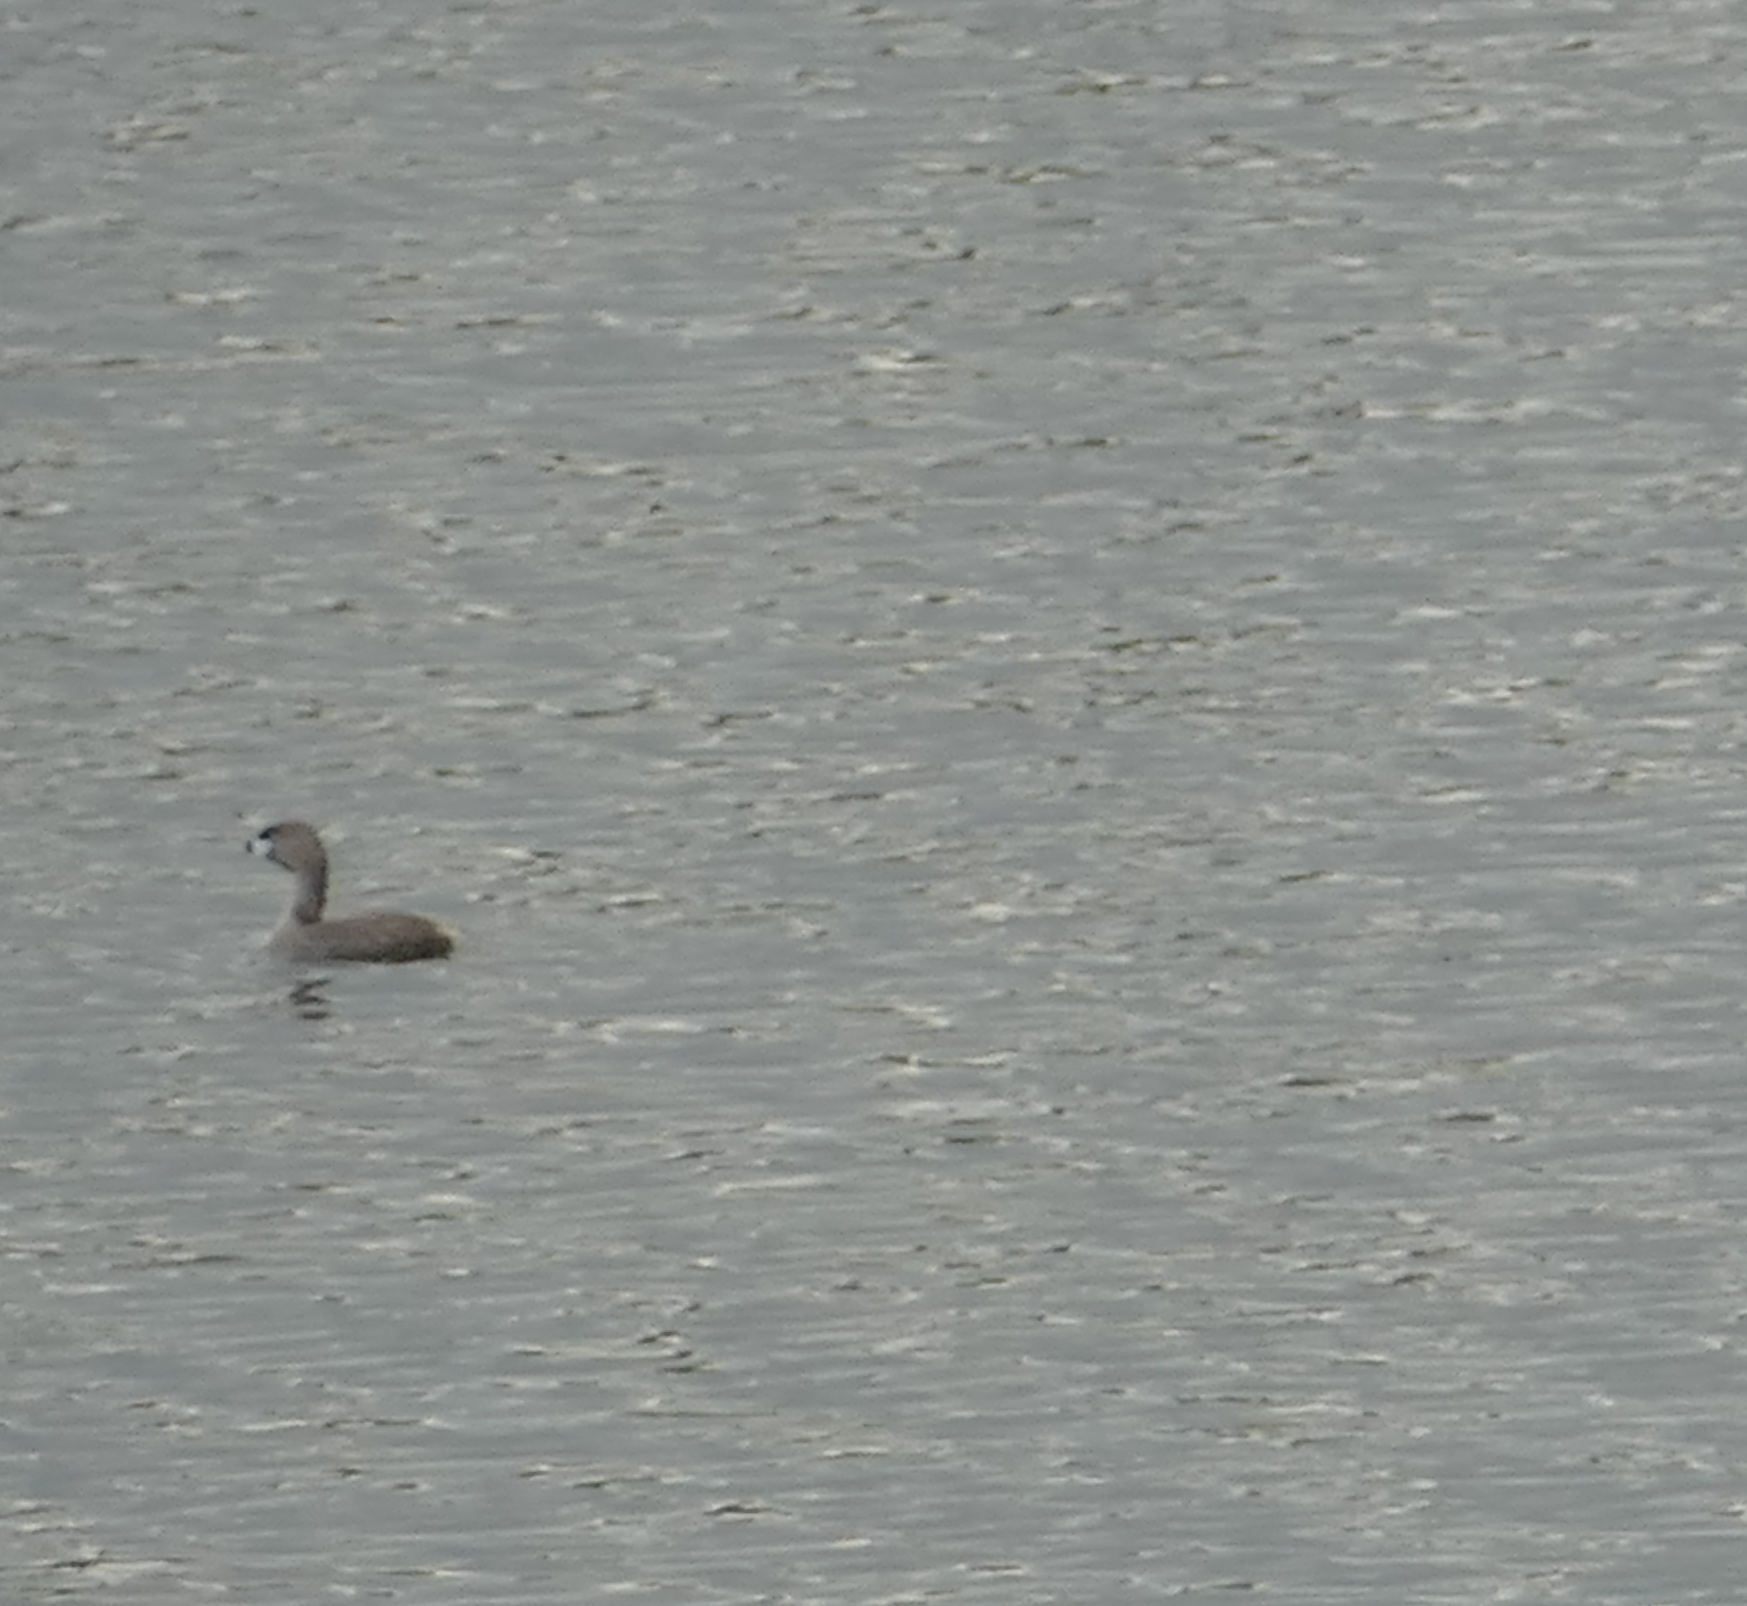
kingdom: Animalia
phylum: Chordata
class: Aves
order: Podicipediformes
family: Podicipedidae
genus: Podilymbus
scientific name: Podilymbus podiceps
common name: Pied-billed grebe
